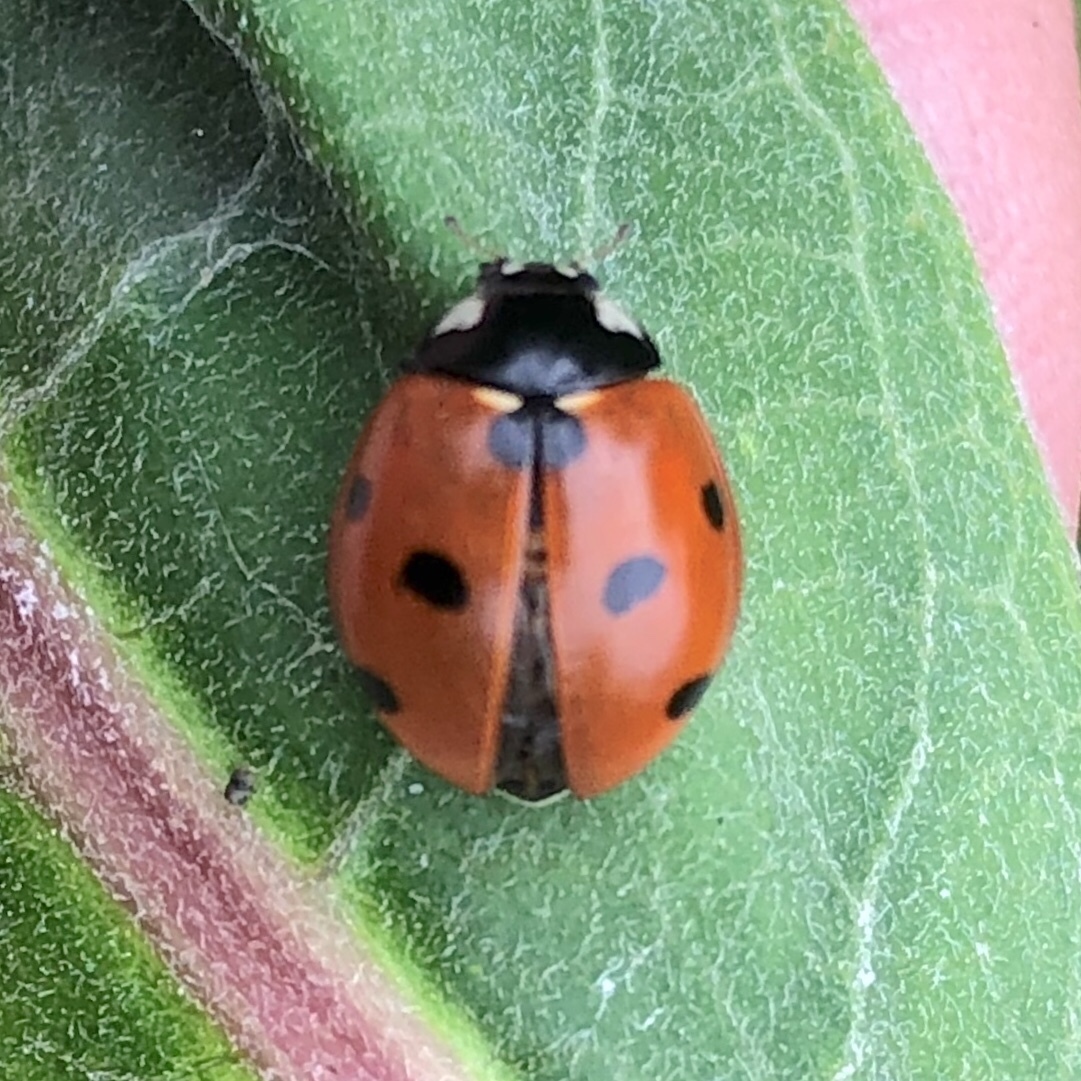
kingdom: Animalia
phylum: Arthropoda
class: Insecta
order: Coleoptera
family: Coccinellidae
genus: Coccinella
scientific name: Coccinella septempunctata
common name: Sevenspotted lady beetle
